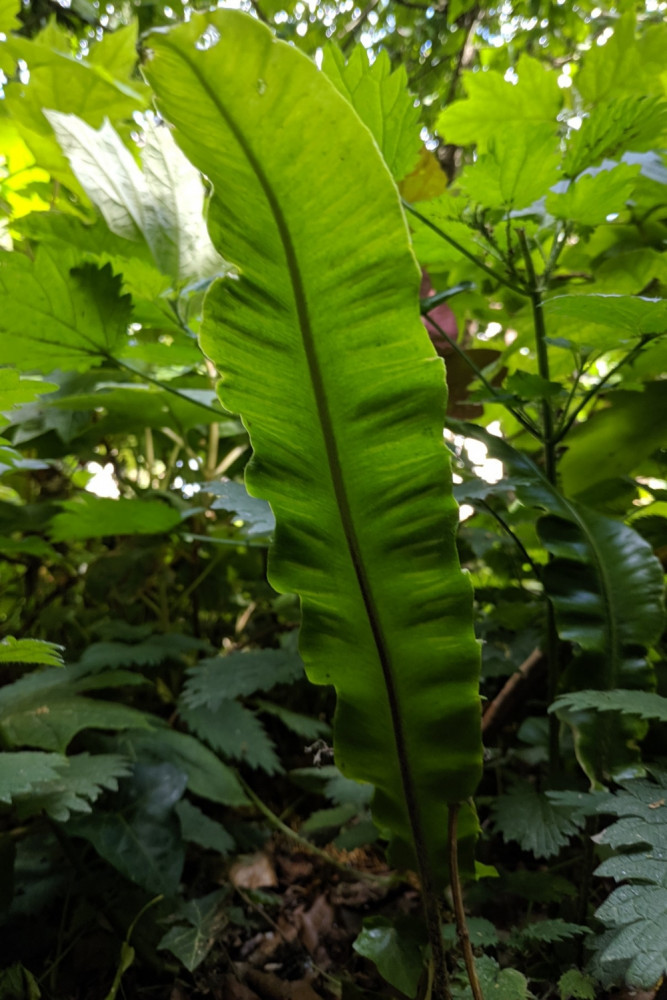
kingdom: Plantae
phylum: Tracheophyta
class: Polypodiopsida
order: Polypodiales
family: Aspleniaceae
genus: Asplenium
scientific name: Asplenium scolopendrium
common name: Hart's-tongue fern
